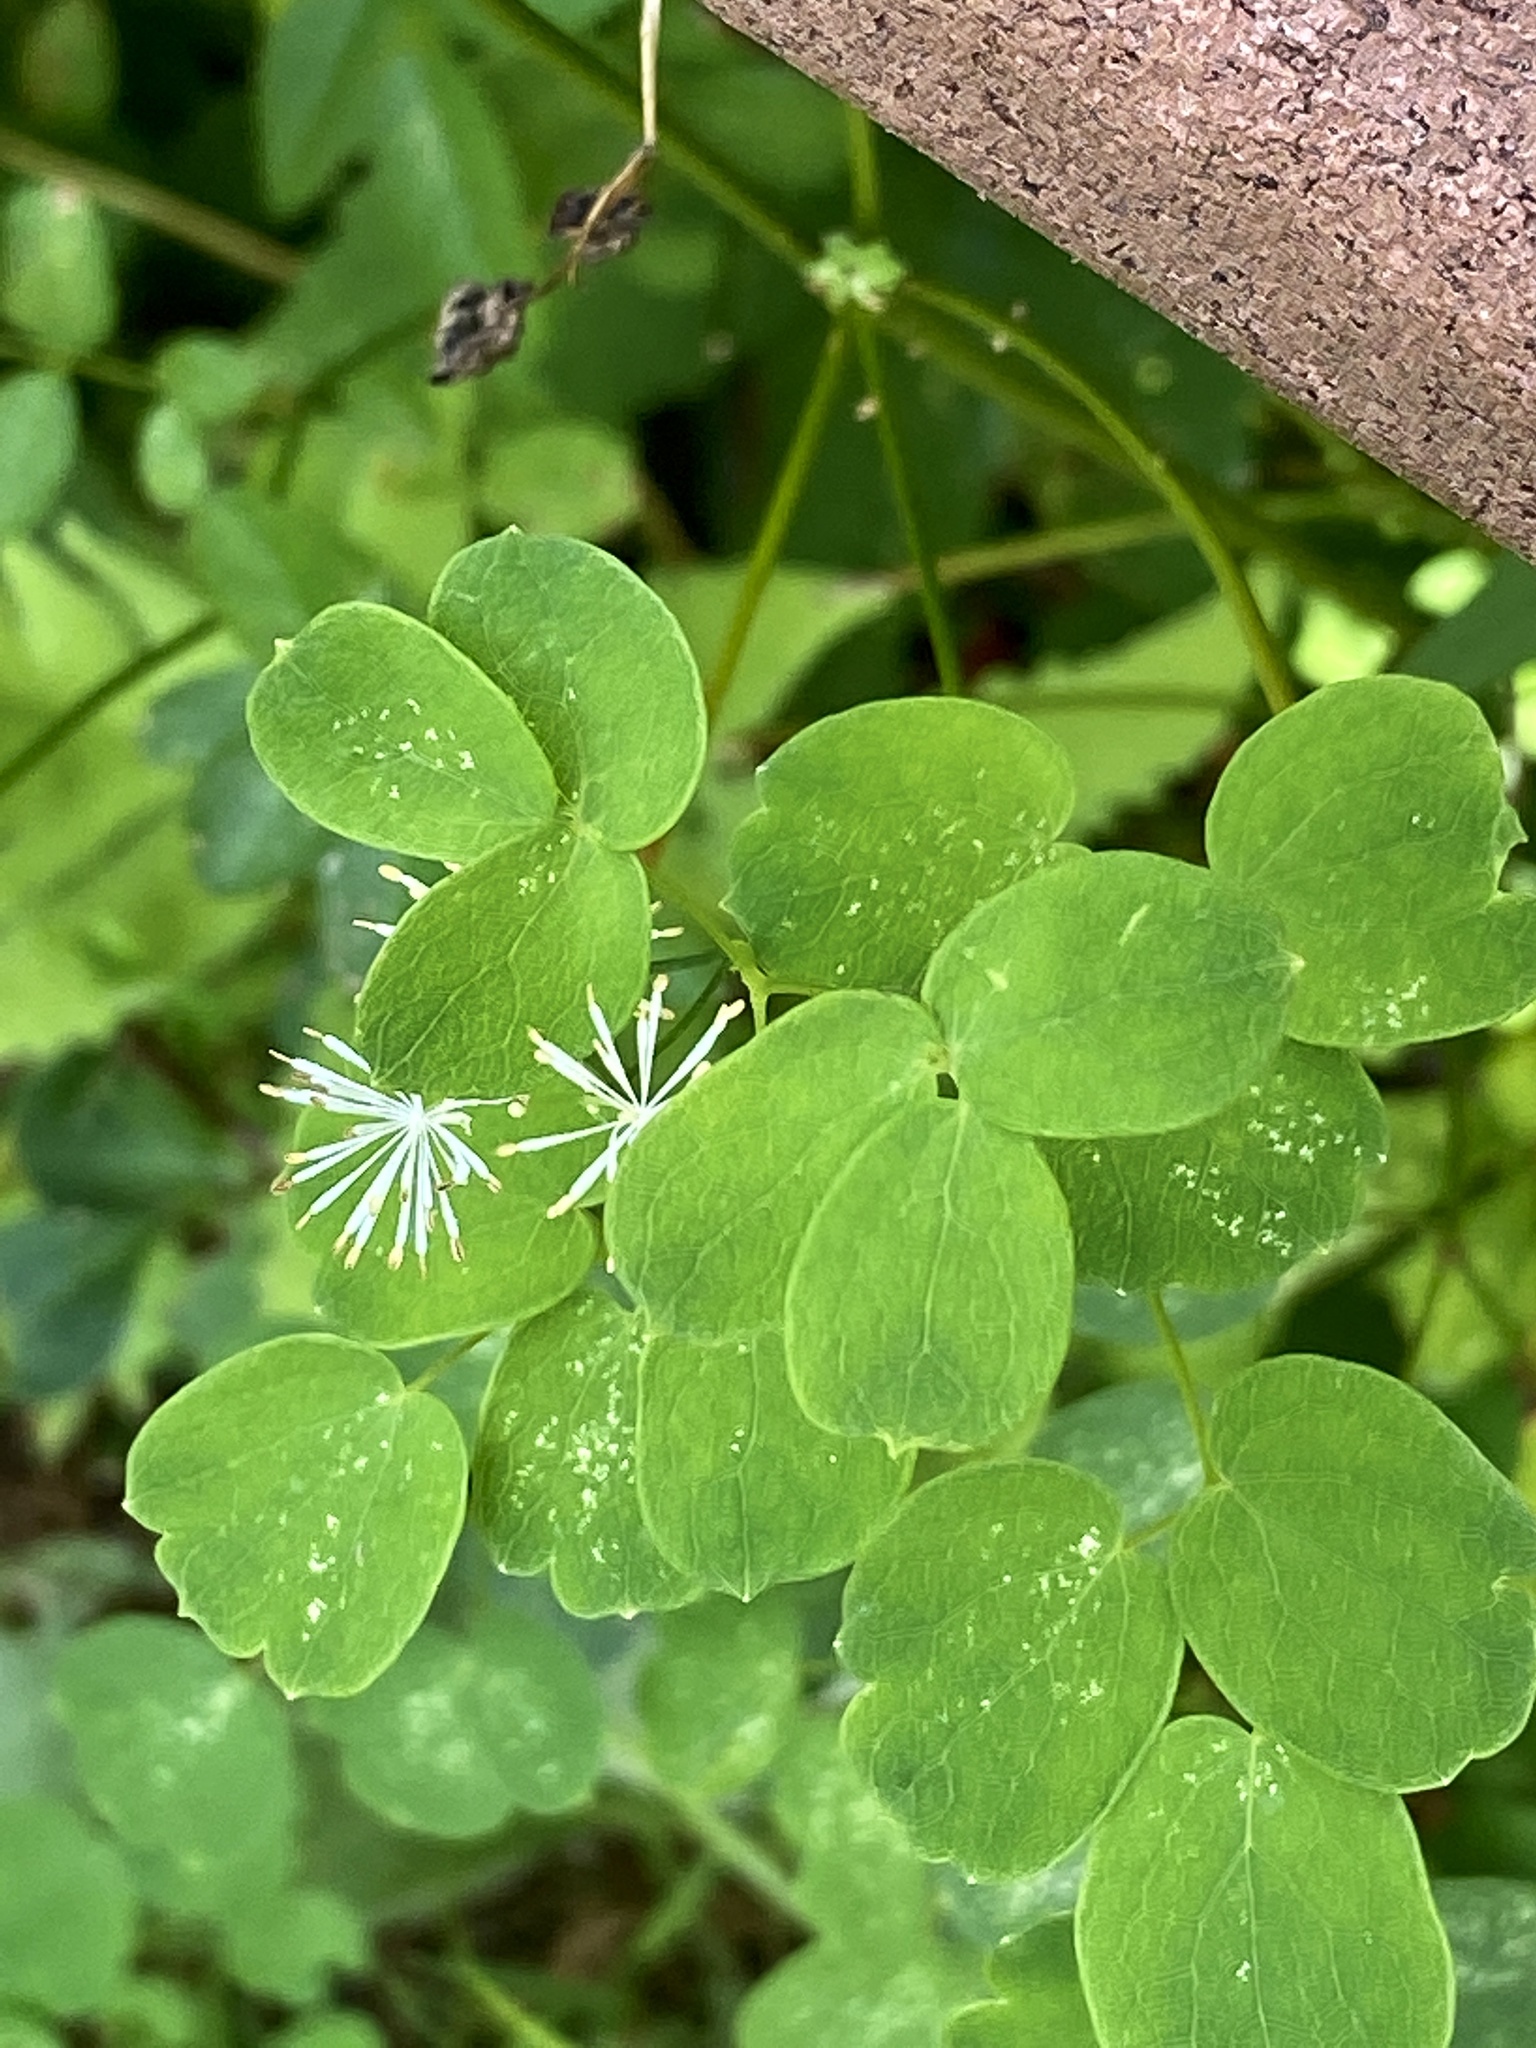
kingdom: Plantae
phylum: Tracheophyta
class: Magnoliopsida
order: Ranunculales
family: Ranunculaceae
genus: Thalictrum
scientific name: Thalictrum pubescens
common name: King-of-the-meadow
